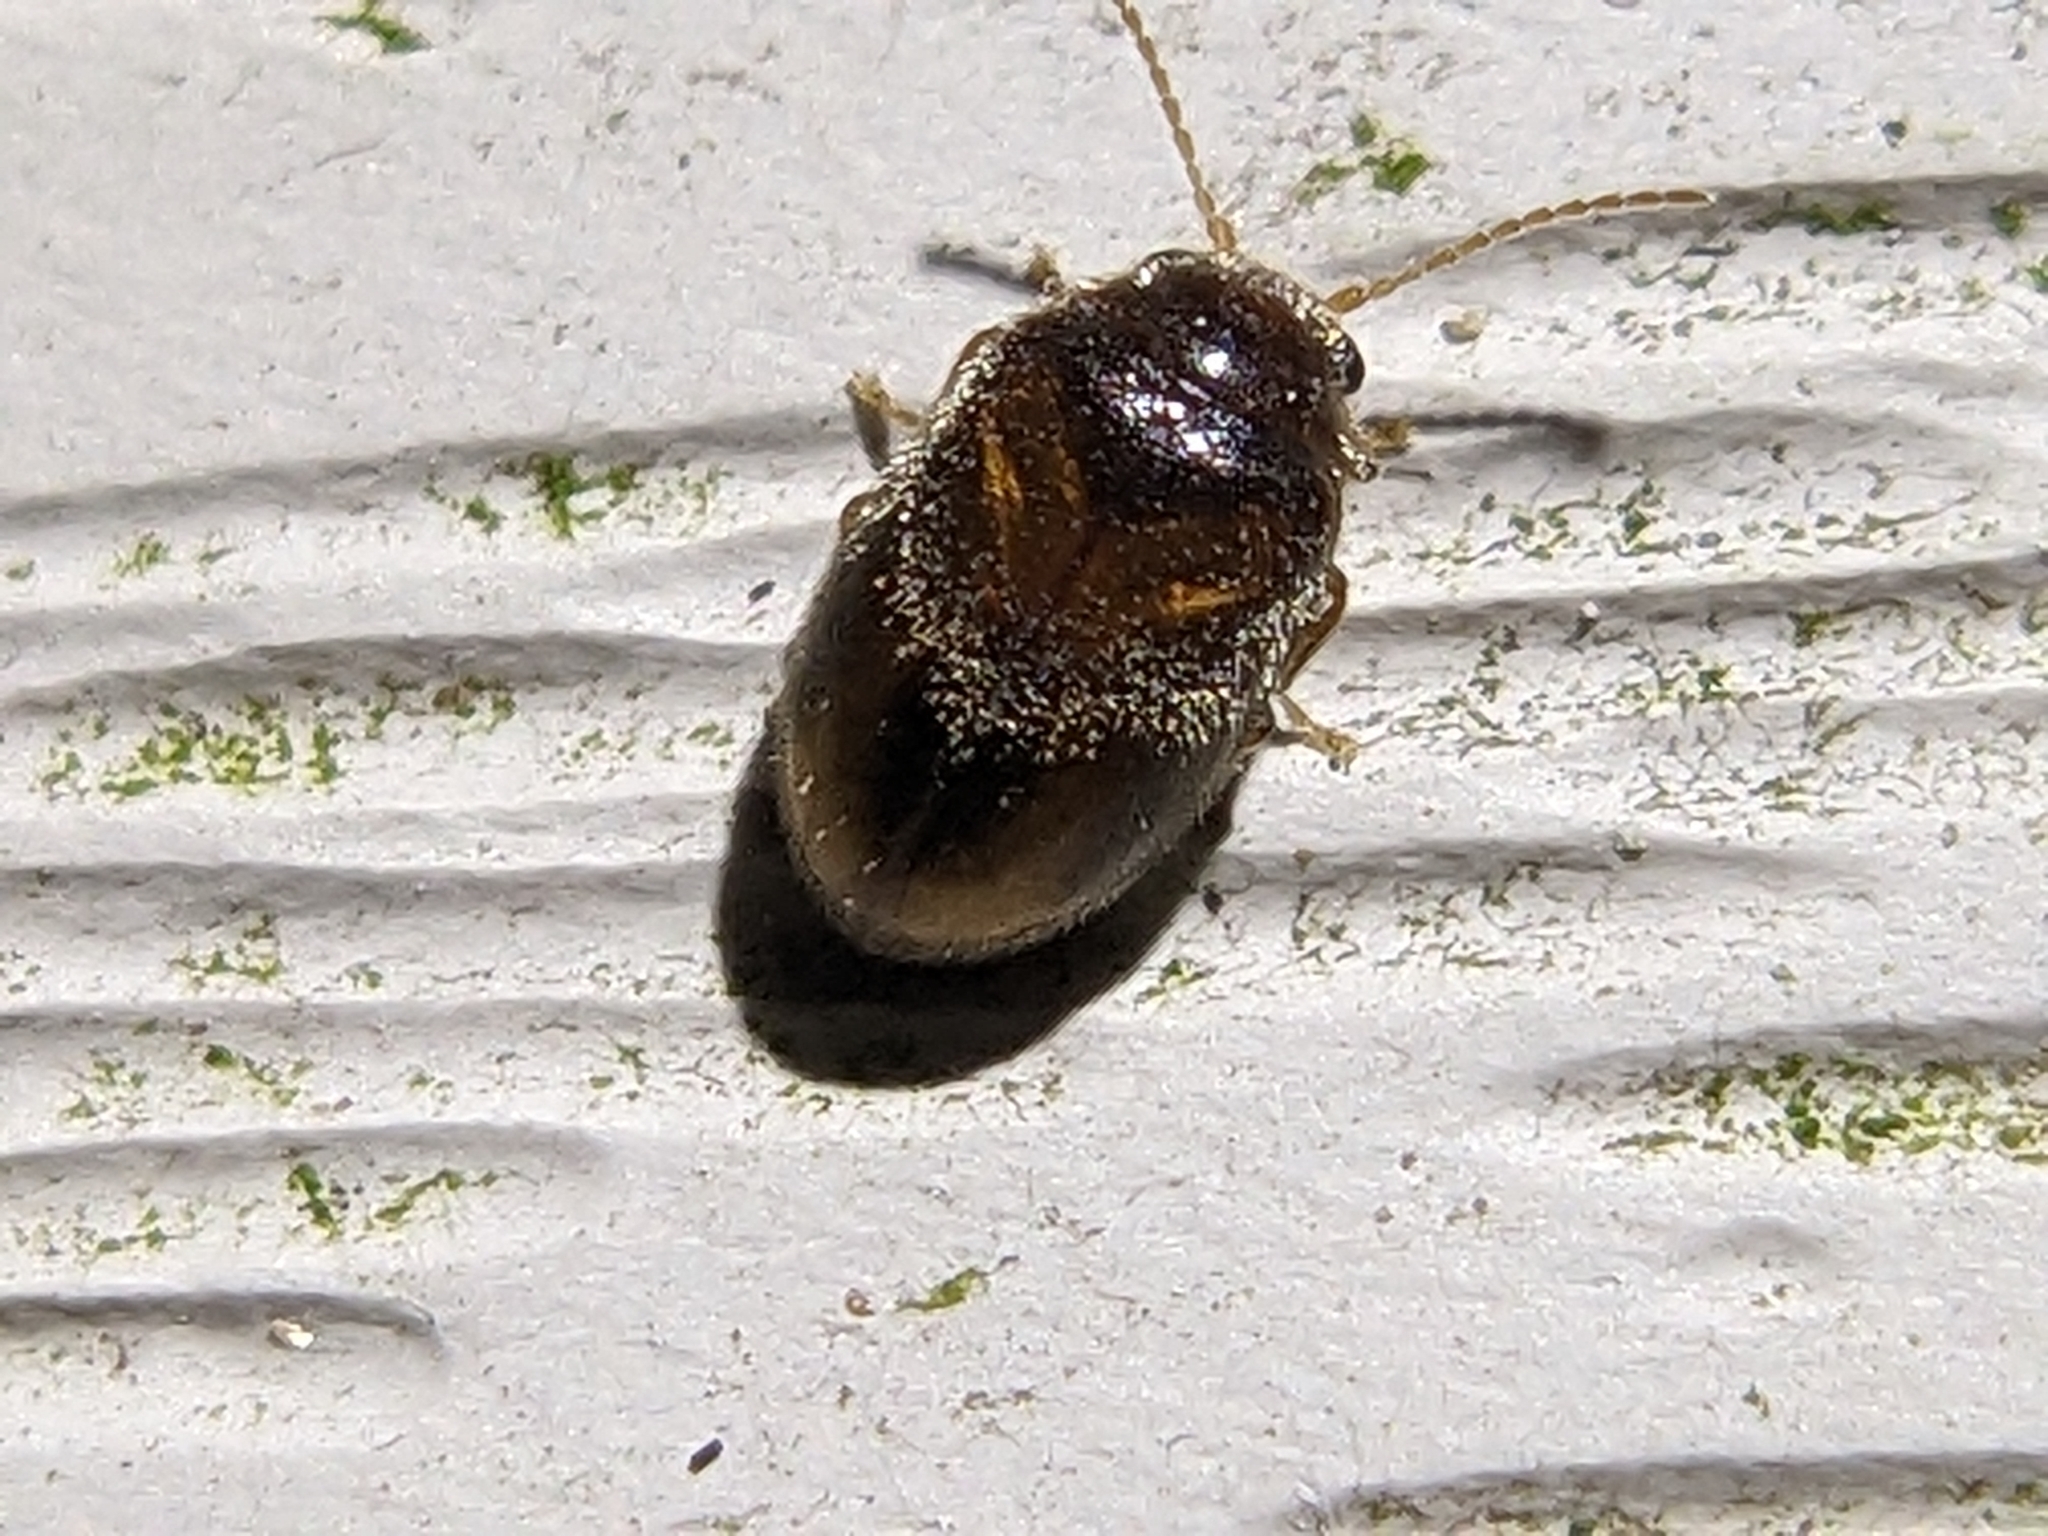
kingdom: Animalia
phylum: Arthropoda
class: Insecta
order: Coleoptera
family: Scirtidae
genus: Contacyphon
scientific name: Contacyphon
